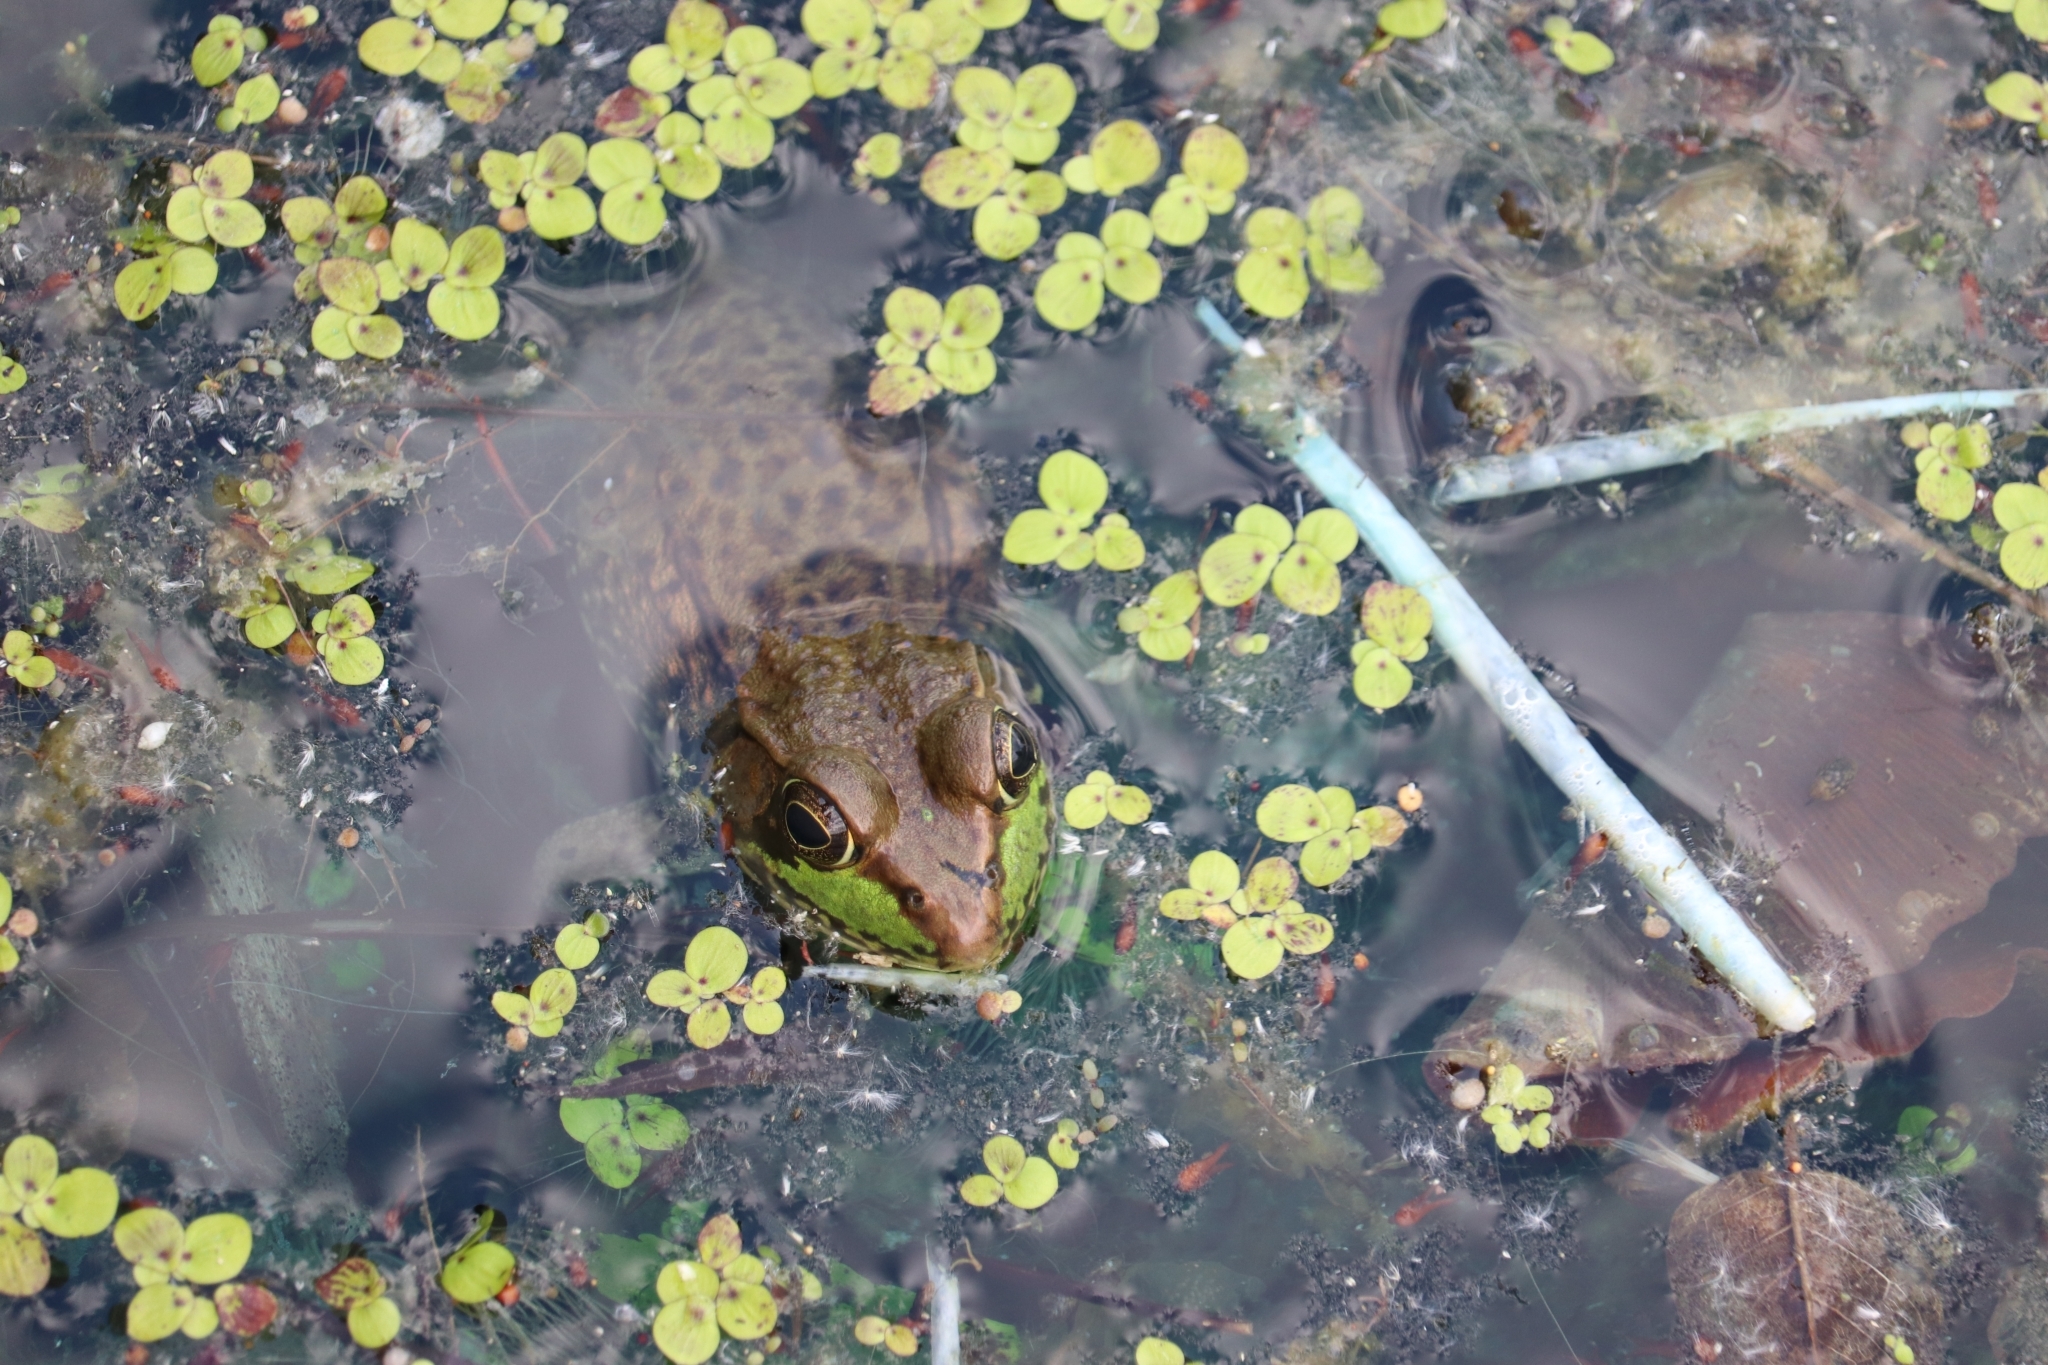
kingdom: Animalia
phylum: Chordata
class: Amphibia
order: Anura
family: Ranidae
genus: Lithobates
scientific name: Lithobates clamitans
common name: Green frog
